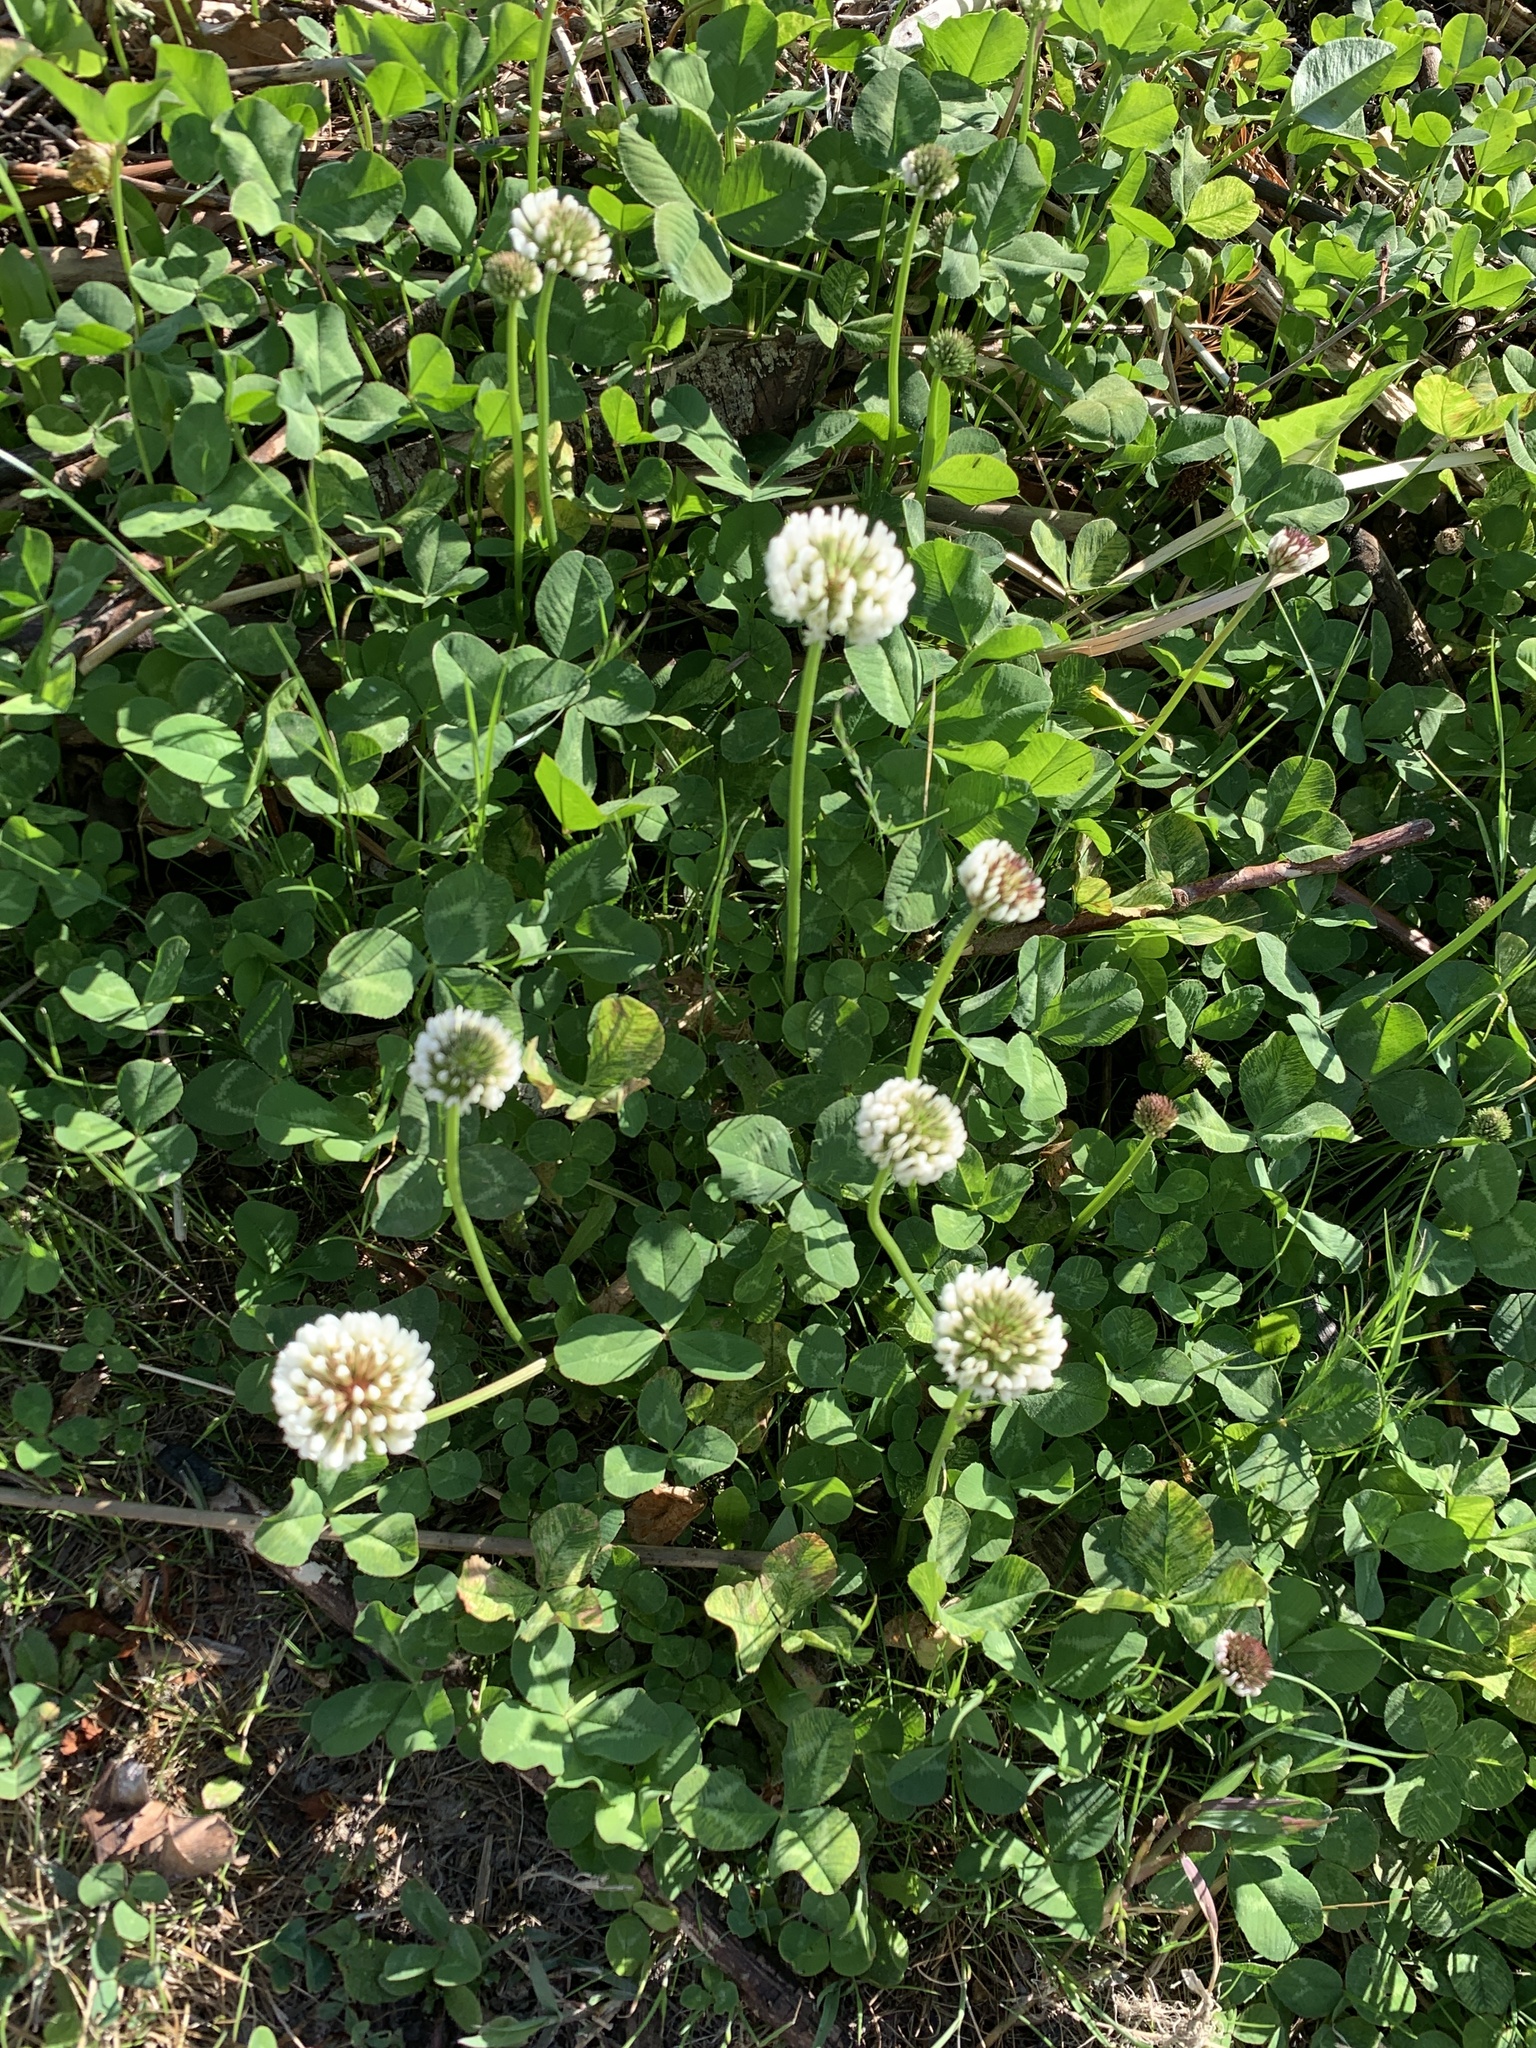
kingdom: Plantae
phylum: Tracheophyta
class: Magnoliopsida
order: Fabales
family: Fabaceae
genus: Trifolium
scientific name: Trifolium repens
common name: White clover
